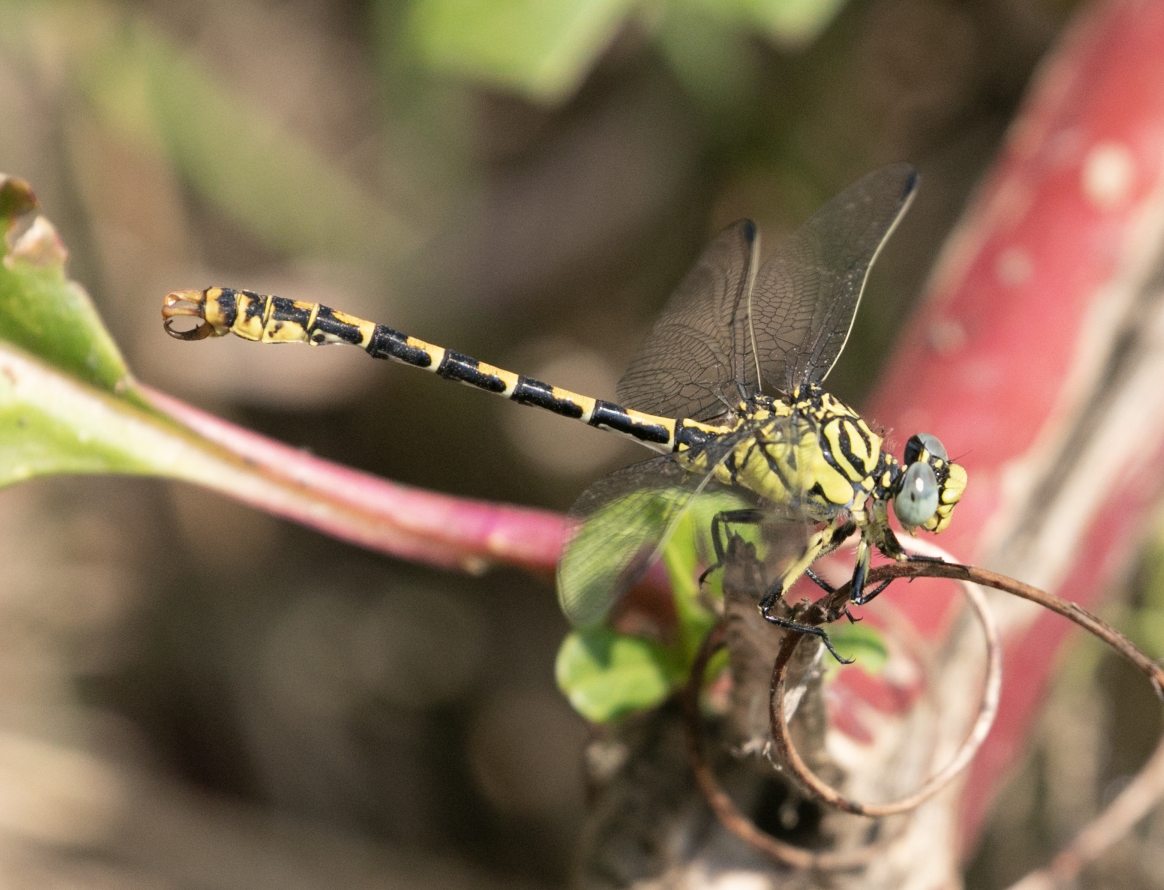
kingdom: Animalia
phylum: Arthropoda
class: Insecta
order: Odonata
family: Gomphidae
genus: Onychogomphus
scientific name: Onychogomphus forcipatus
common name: Small pincertail
